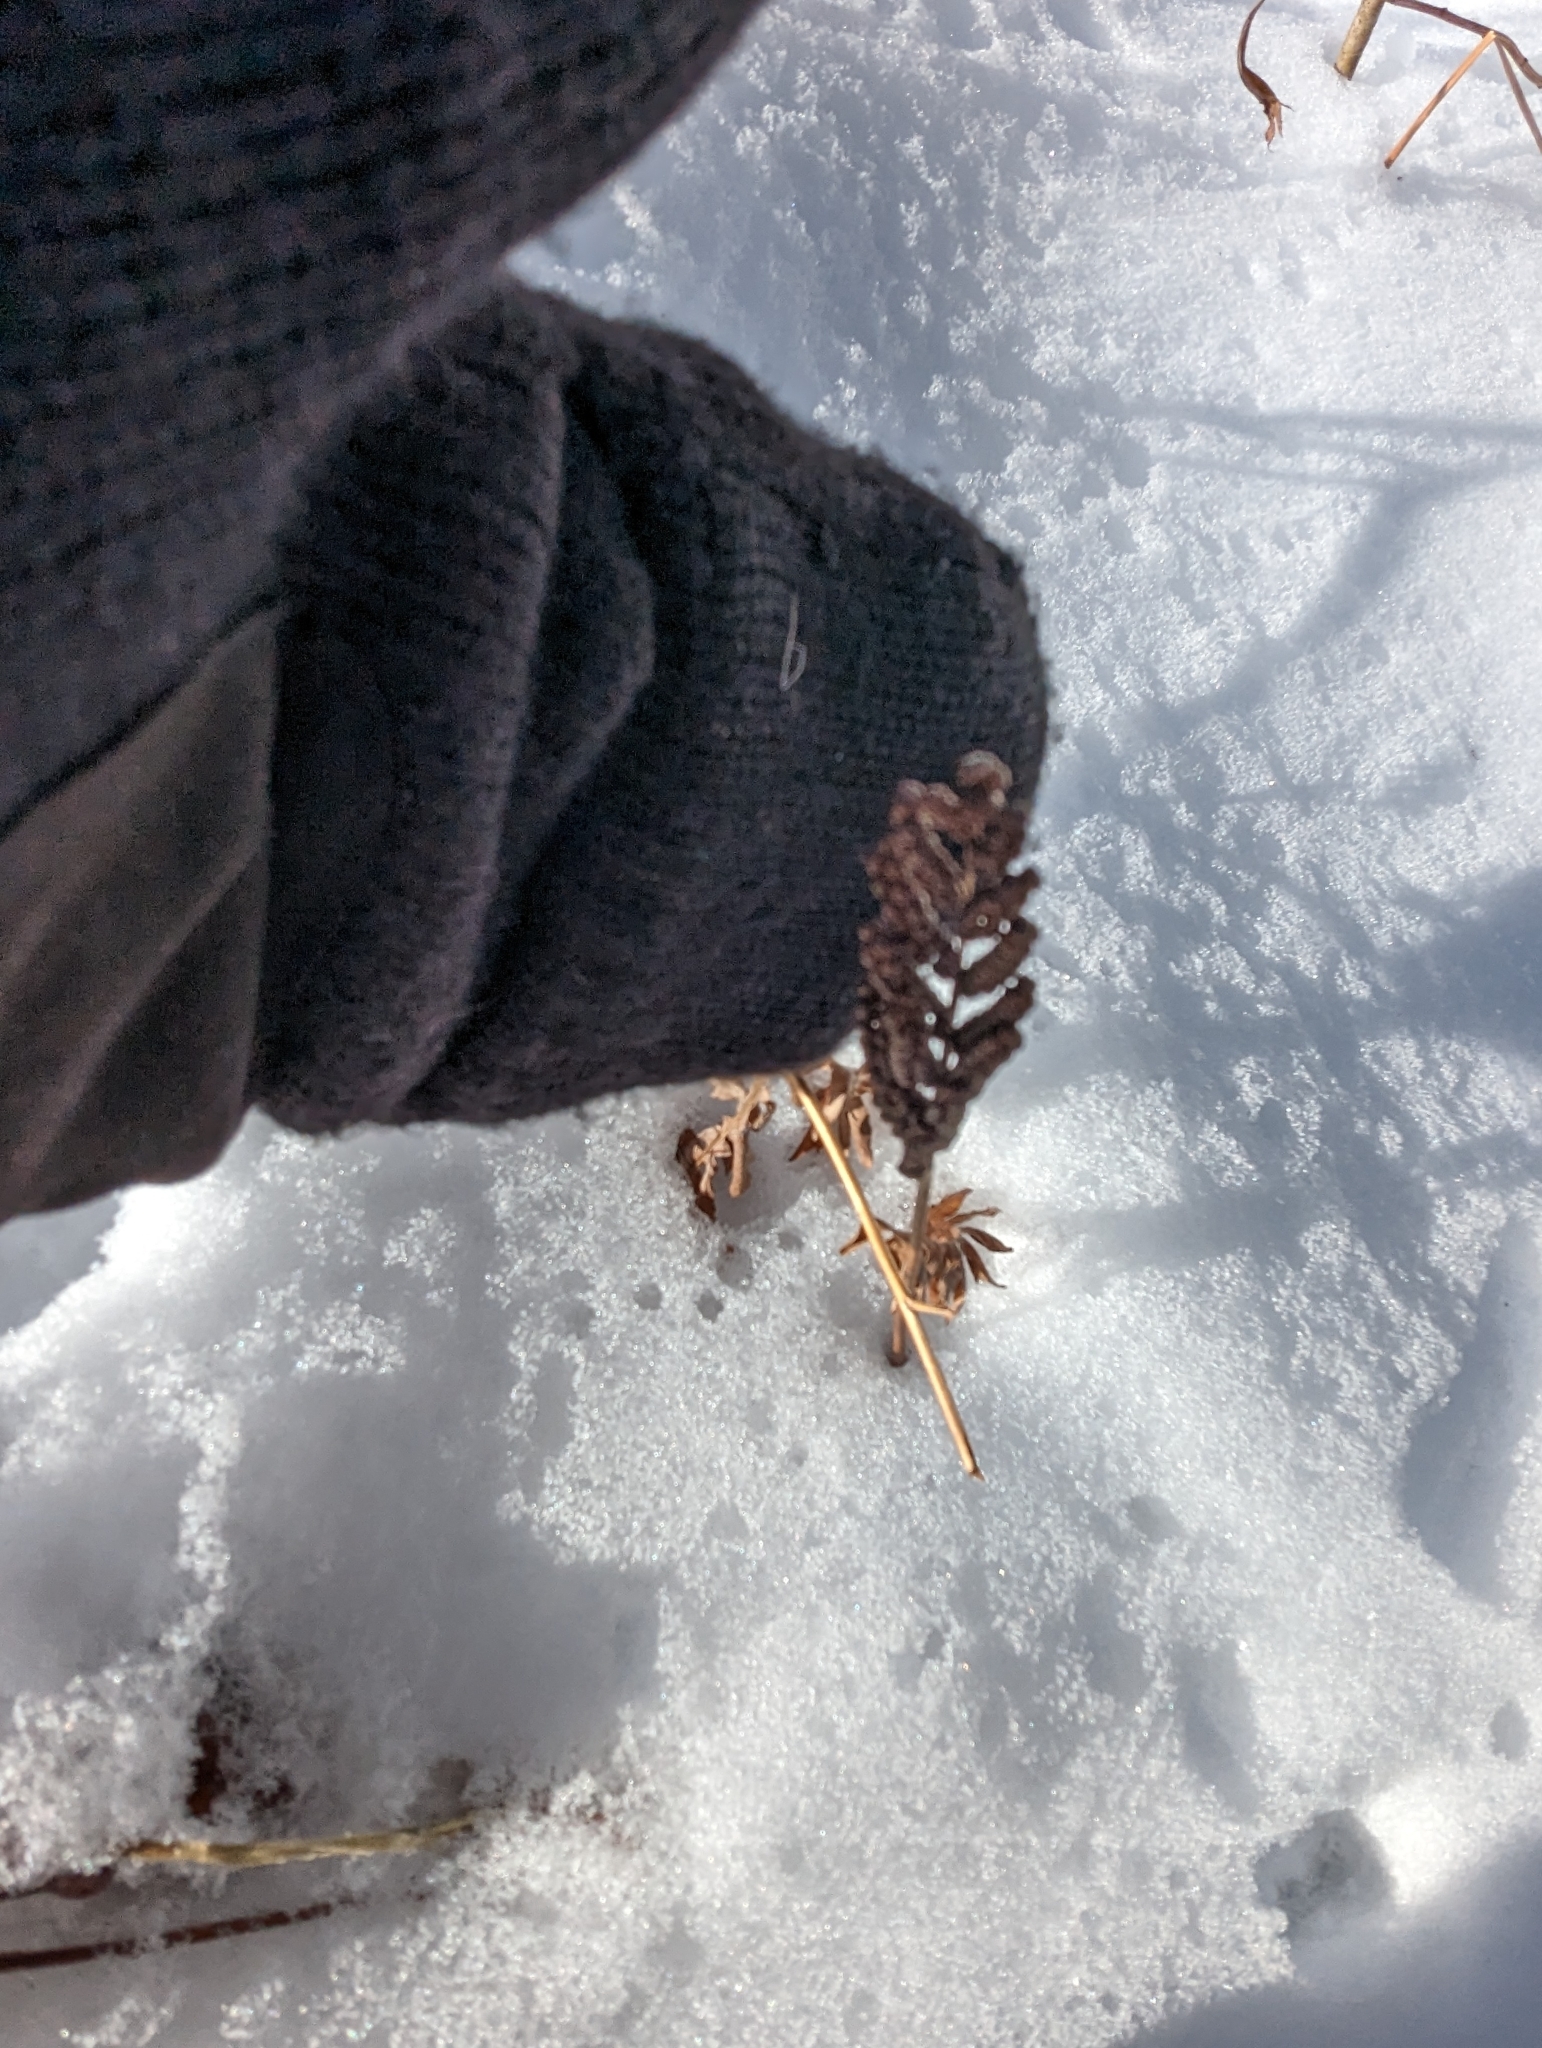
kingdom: Plantae
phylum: Tracheophyta
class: Polypodiopsida
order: Polypodiales
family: Onocleaceae
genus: Onoclea
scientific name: Onoclea sensibilis
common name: Sensitive fern
